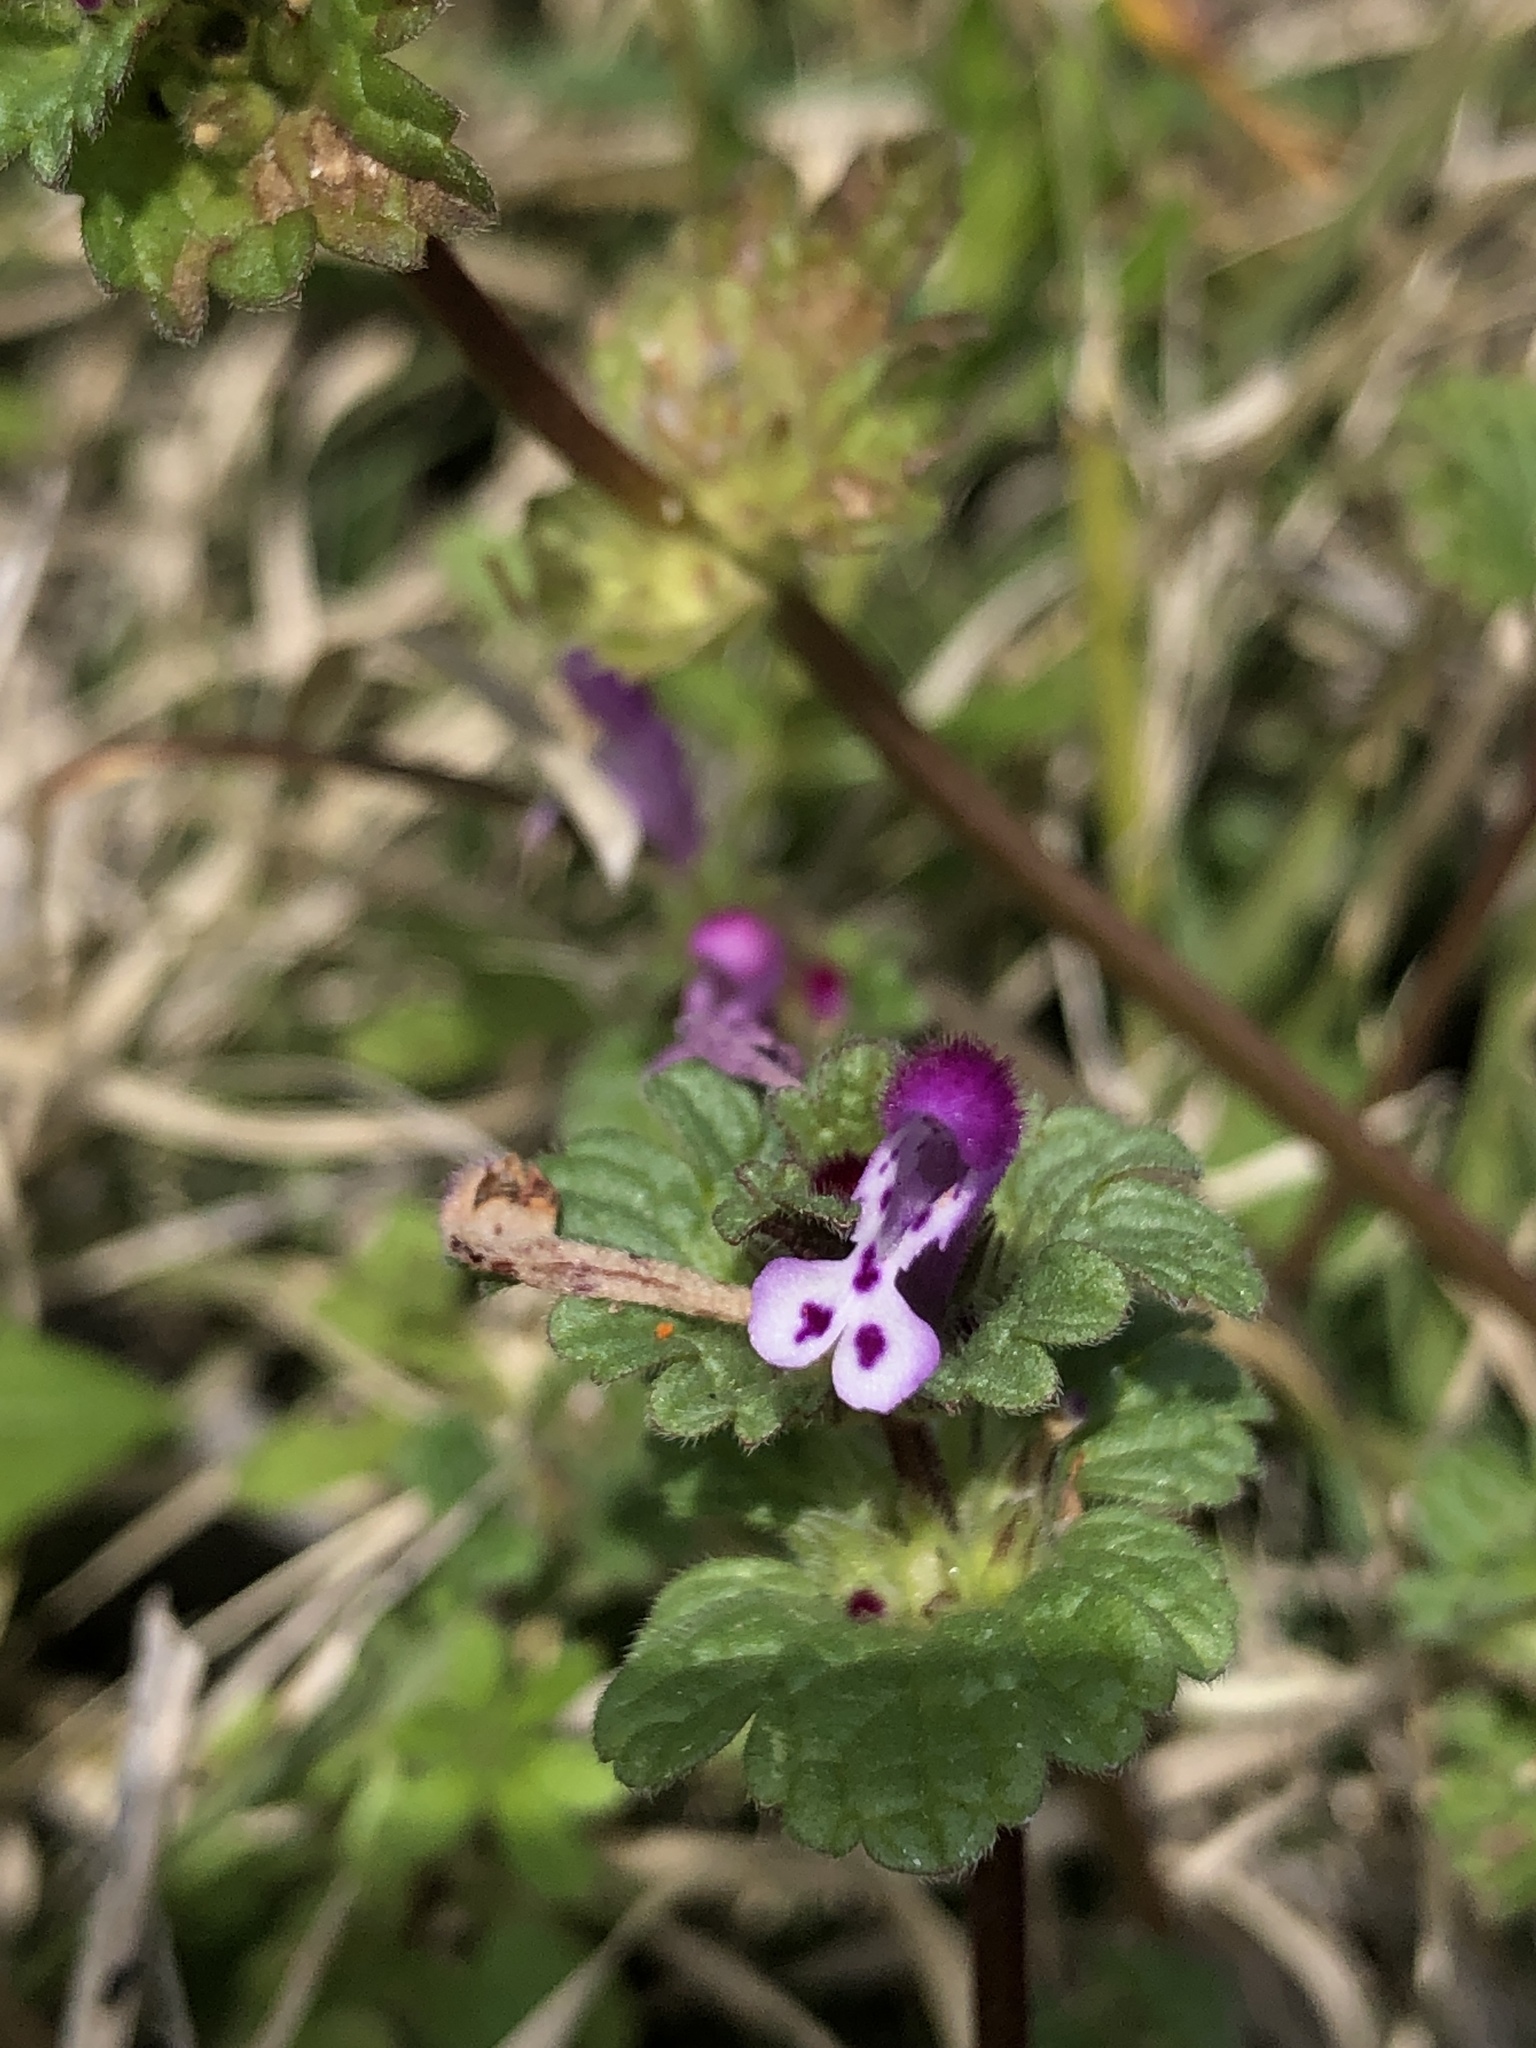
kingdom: Plantae
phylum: Tracheophyta
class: Magnoliopsida
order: Lamiales
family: Lamiaceae
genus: Lamium
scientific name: Lamium amplexicaule
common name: Henbit dead-nettle
